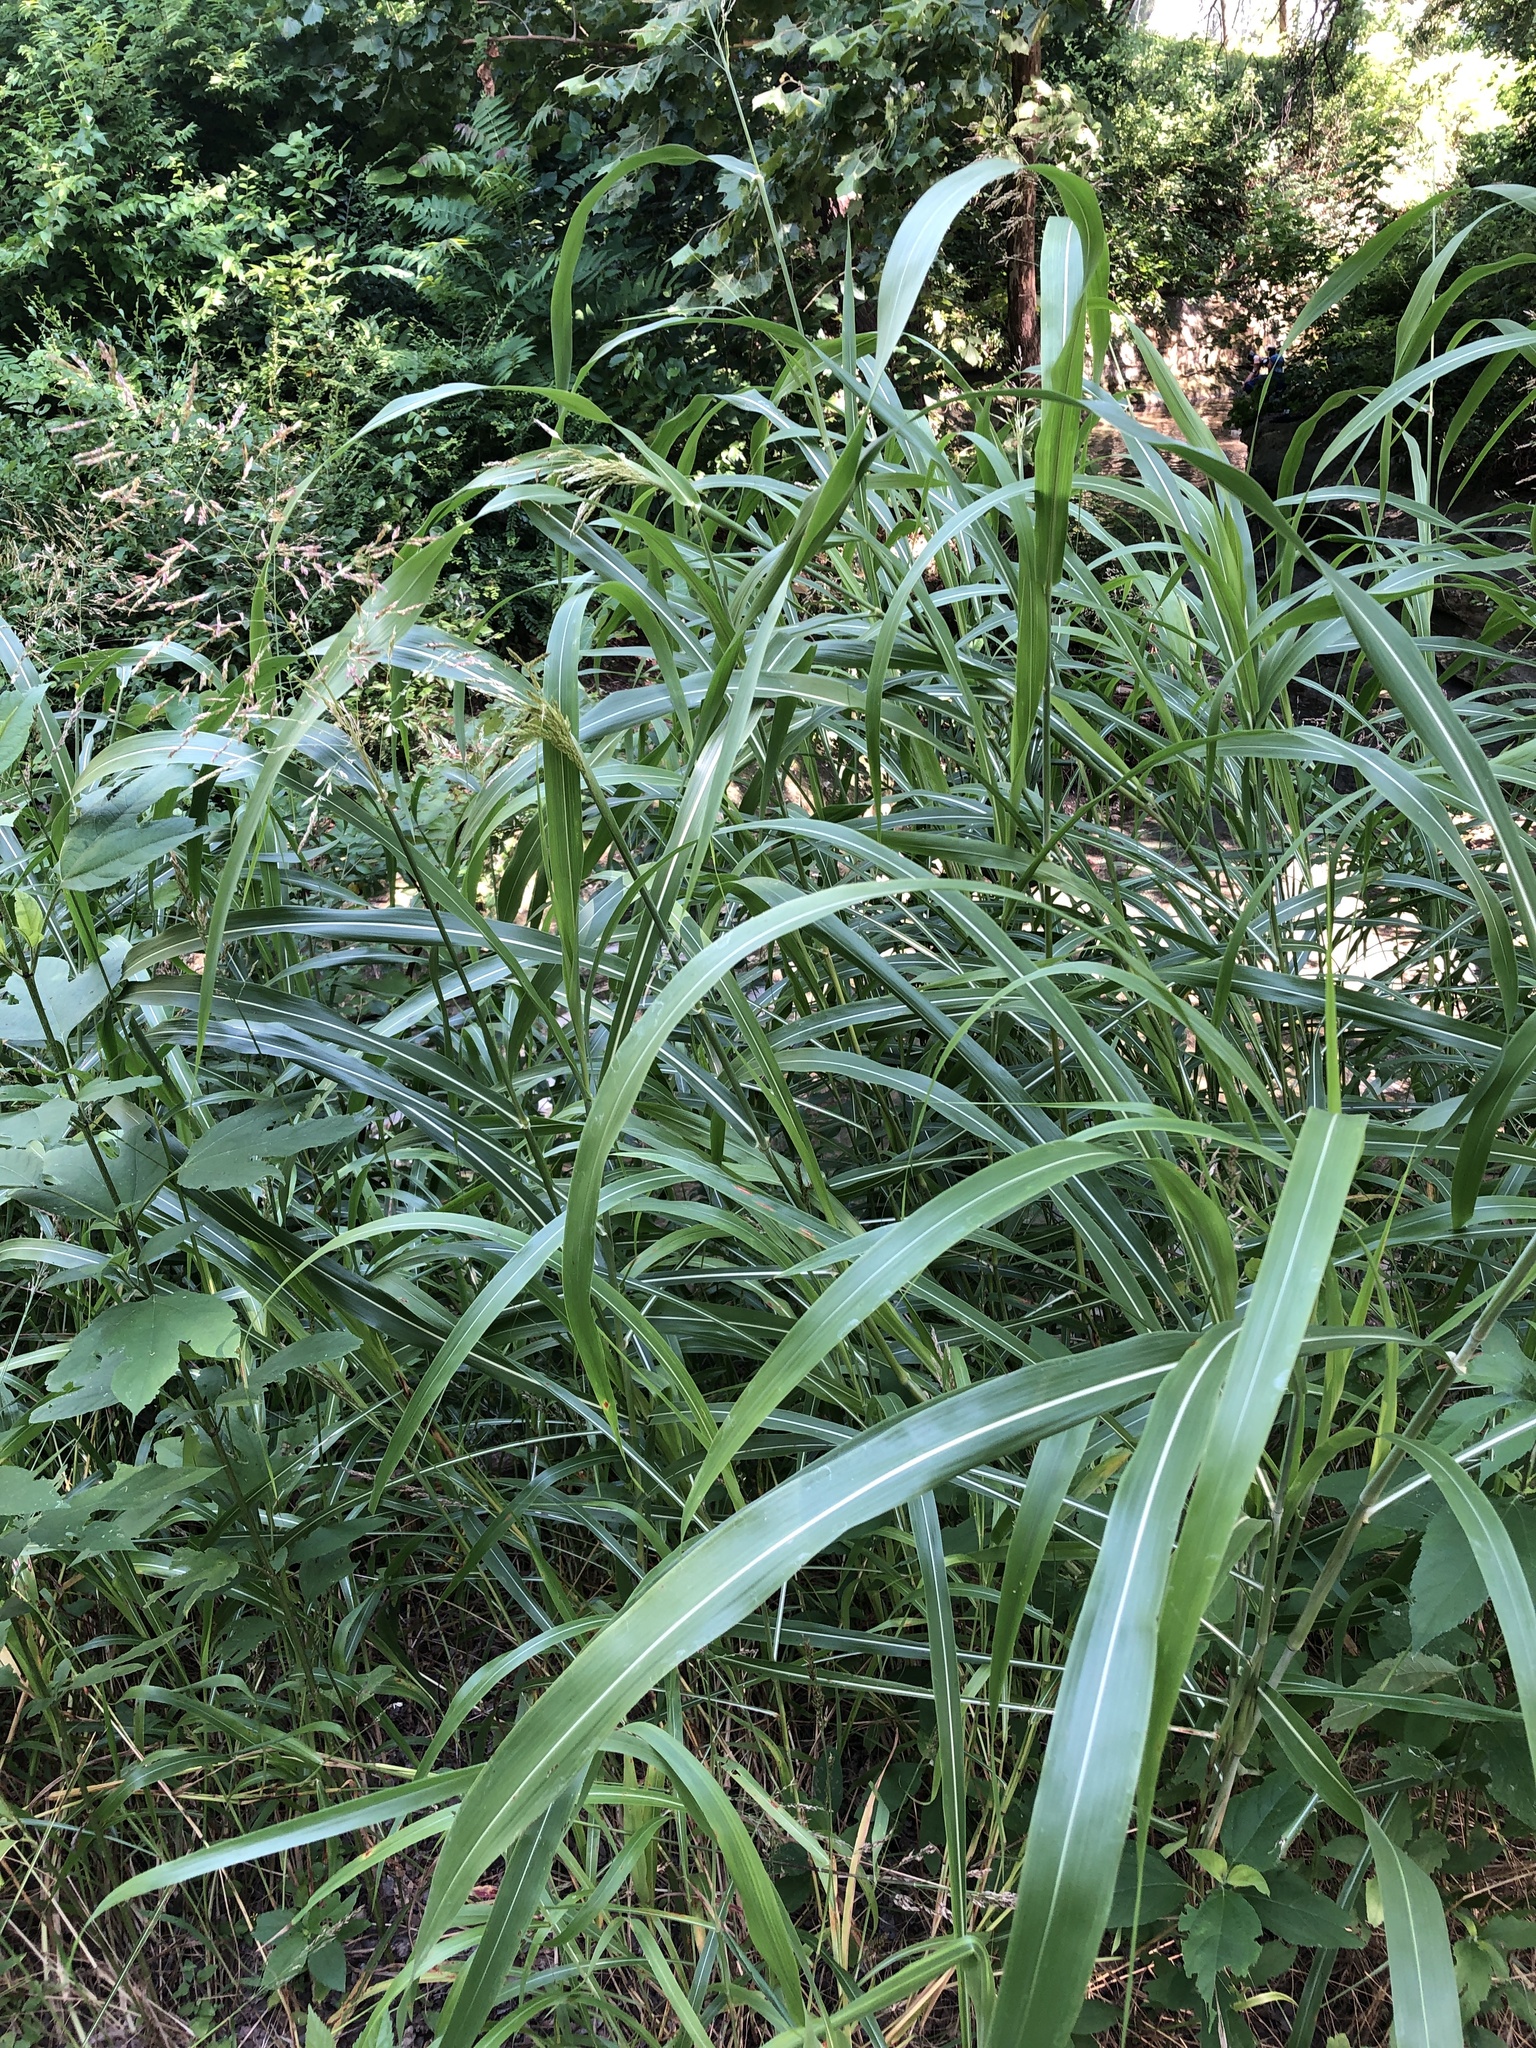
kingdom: Plantae
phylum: Tracheophyta
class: Liliopsida
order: Poales
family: Poaceae
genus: Sorghum
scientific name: Sorghum halepense
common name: Johnson-grass
